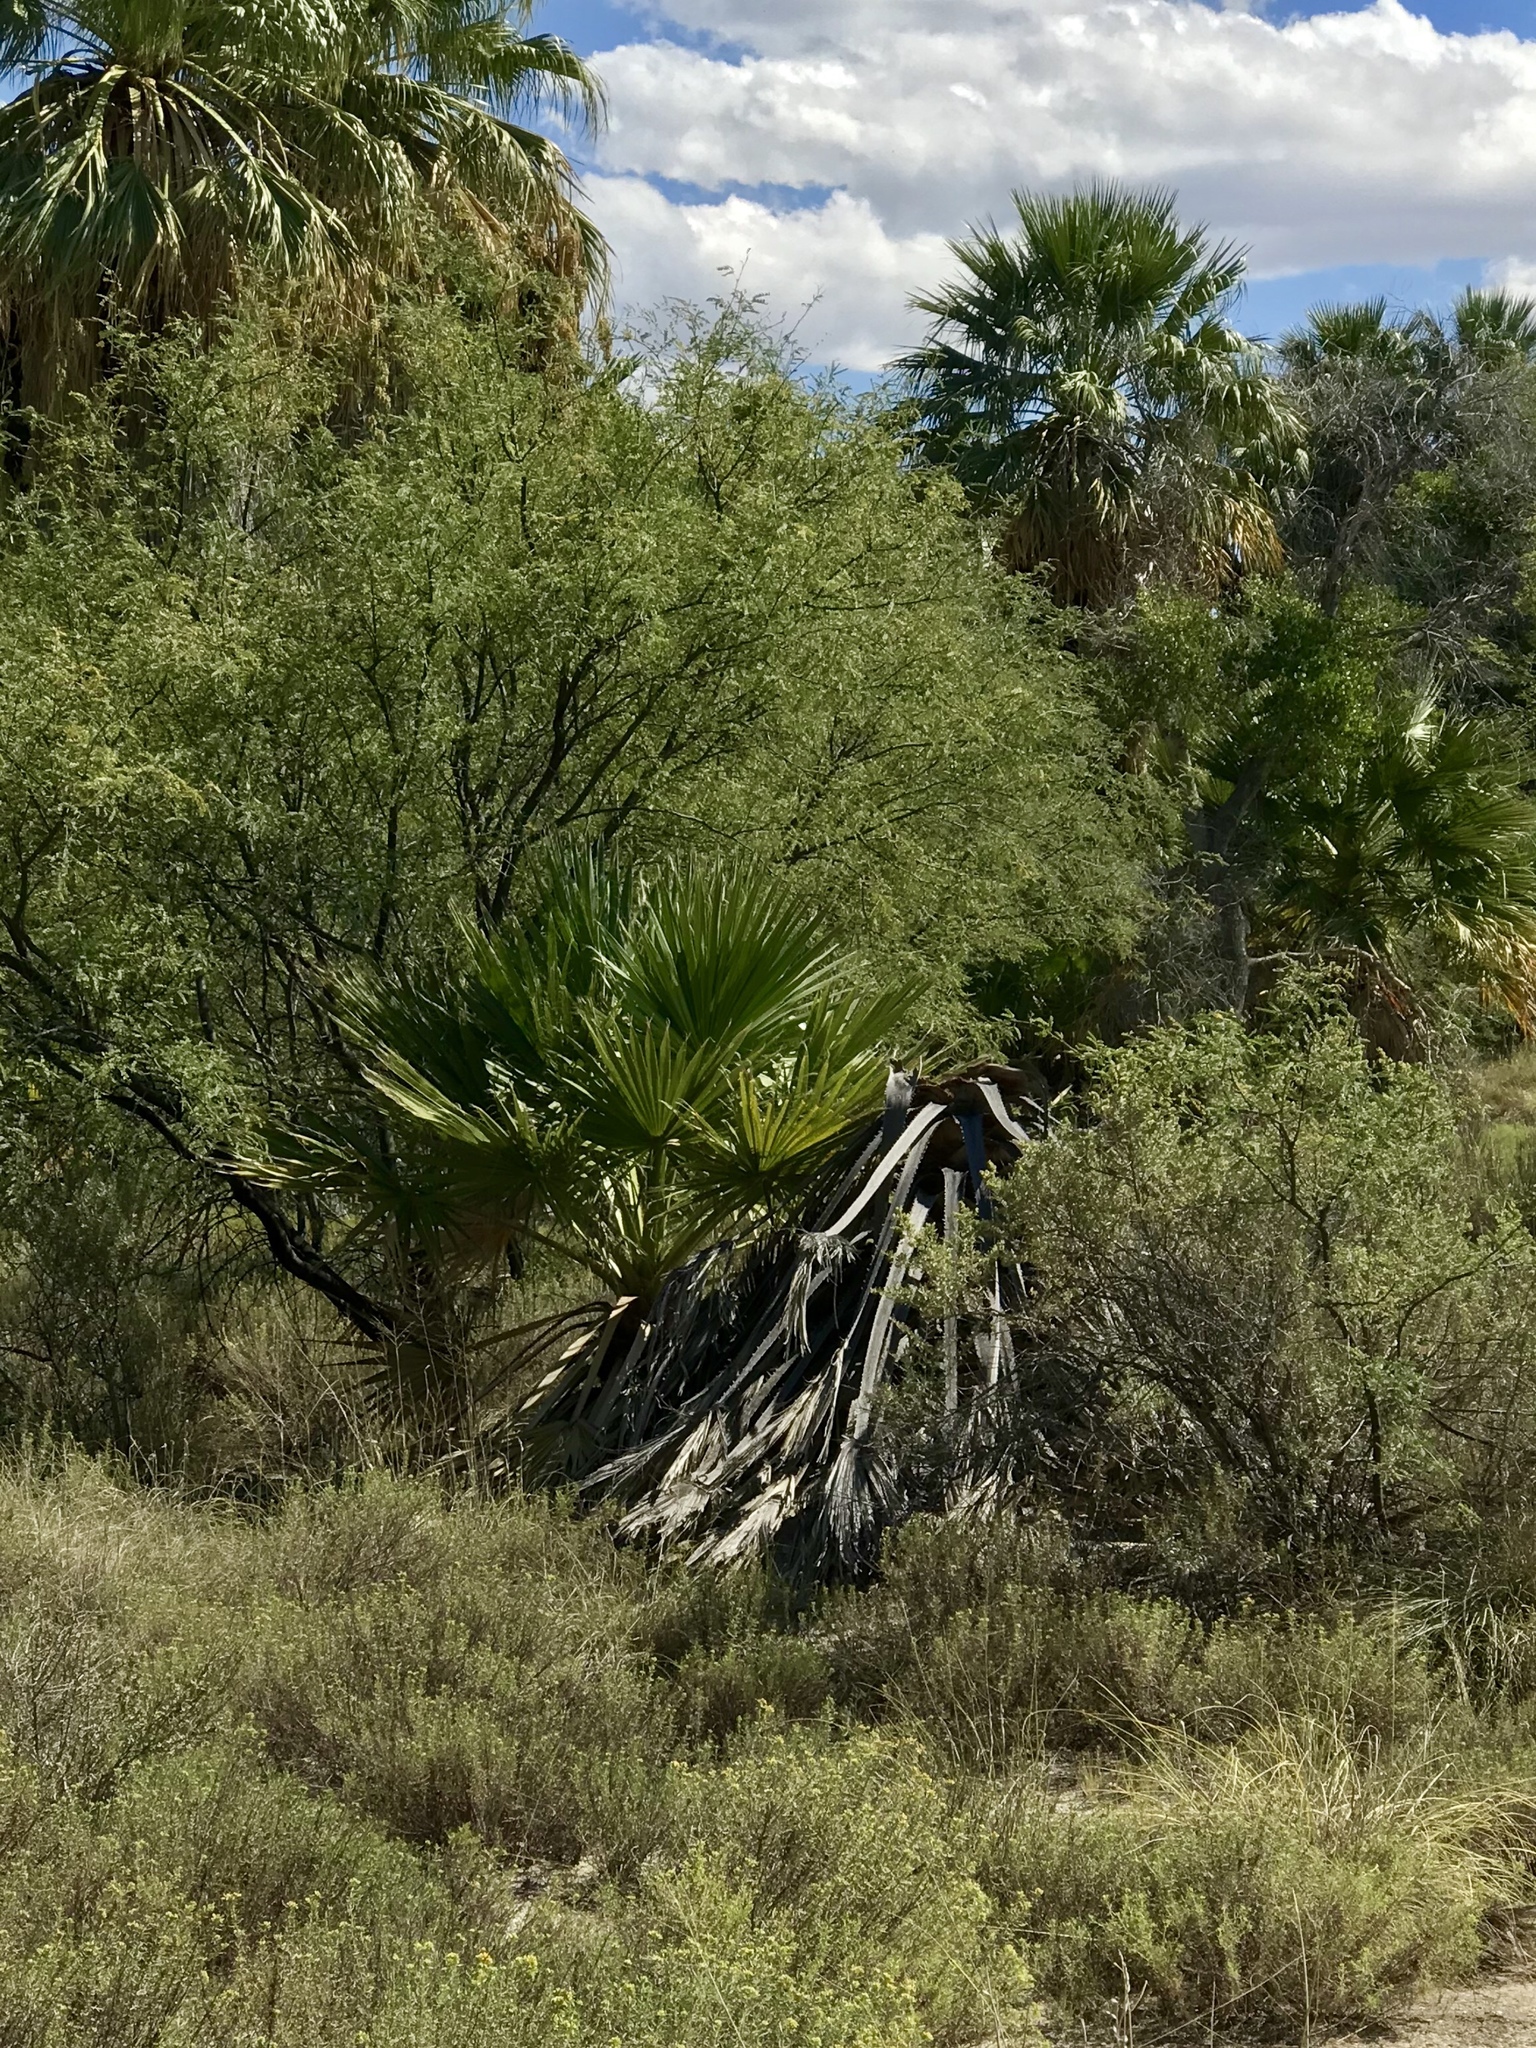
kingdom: Plantae
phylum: Tracheophyta
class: Liliopsida
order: Arecales
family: Arecaceae
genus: Washingtonia
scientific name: Washingtonia filifera
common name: California fan palm
